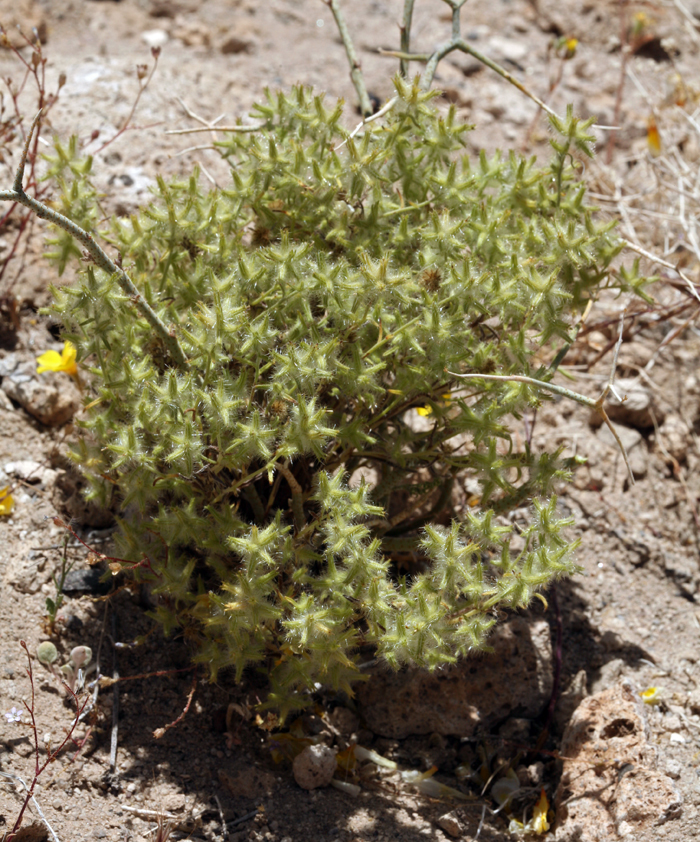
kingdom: Plantae
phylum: Tracheophyta
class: Magnoliopsida
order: Boraginales
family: Boraginaceae
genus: Cryptantha
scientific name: Cryptantha nevadensis
